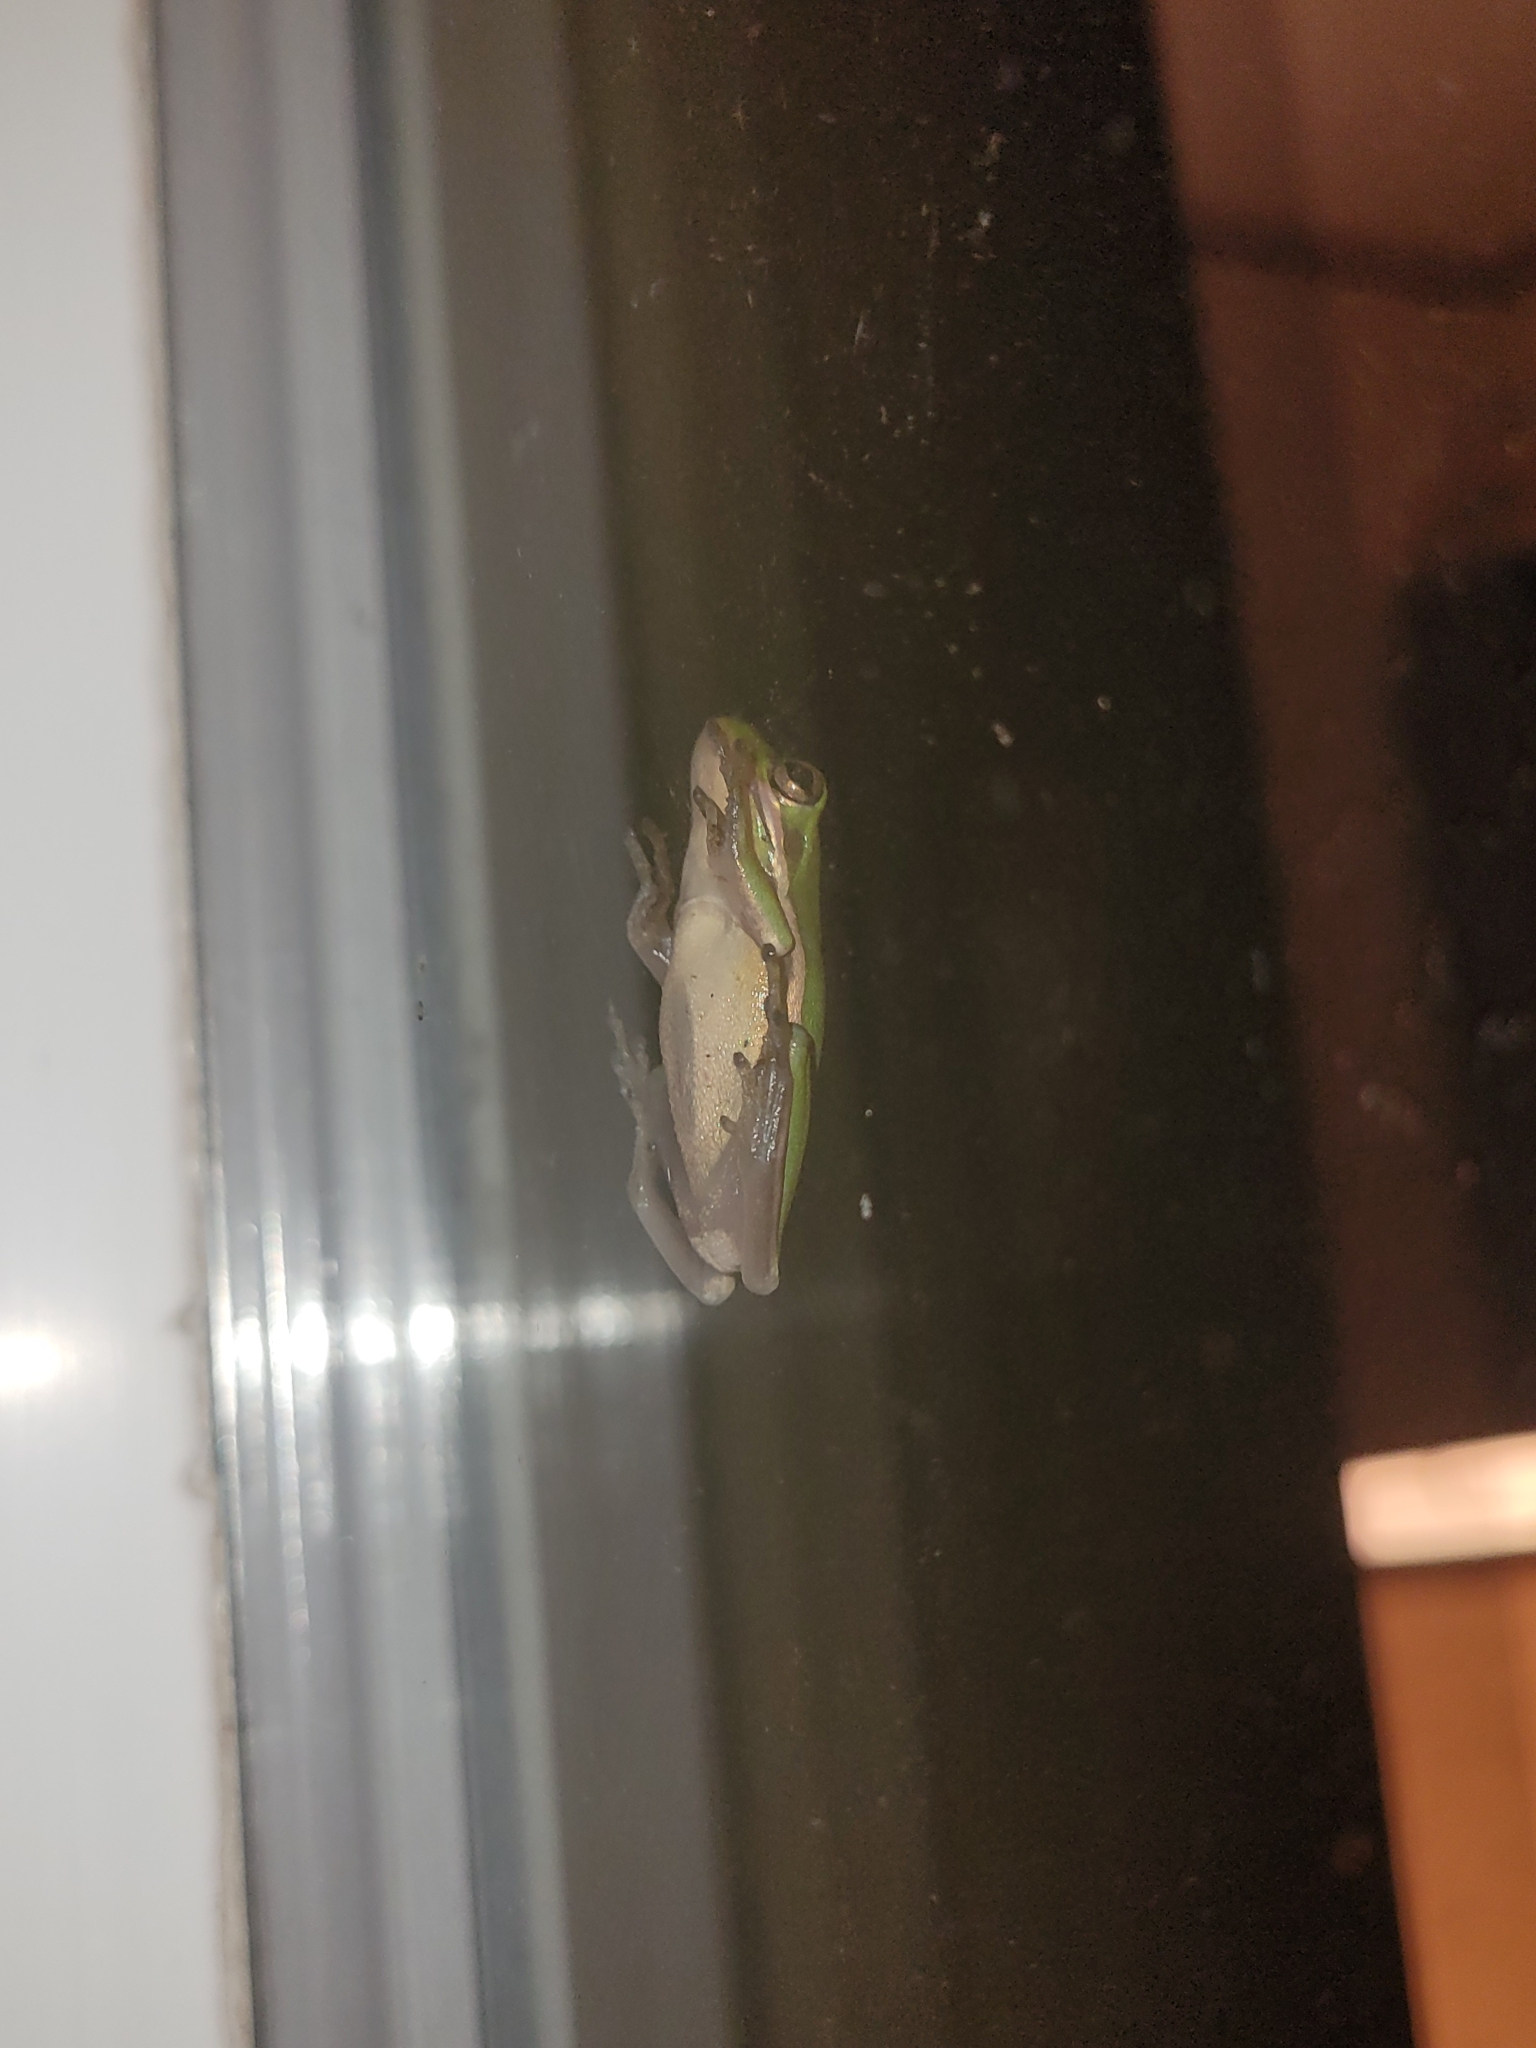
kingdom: Animalia
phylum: Chordata
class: Amphibia
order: Anura
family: Hylidae
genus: Dryophytes
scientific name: Dryophytes cinereus
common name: Green treefrog
